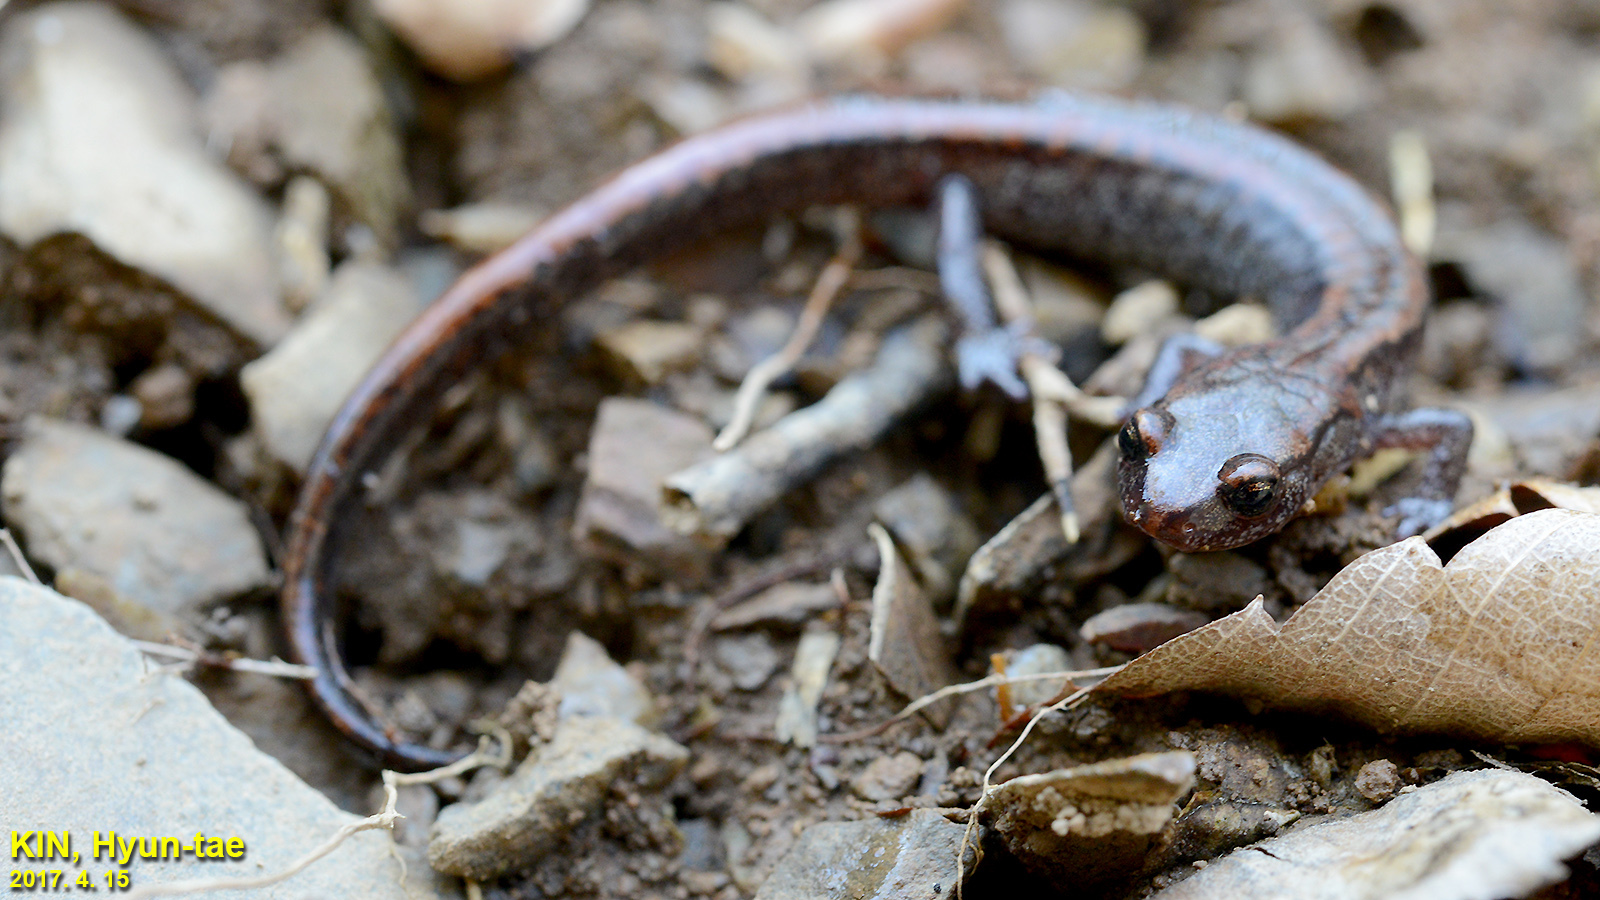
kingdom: Animalia
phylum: Chordata
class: Amphibia
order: Caudata
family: Plethodontidae
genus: Karsenia
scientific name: Karsenia koreana
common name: Korean crevice salamander
